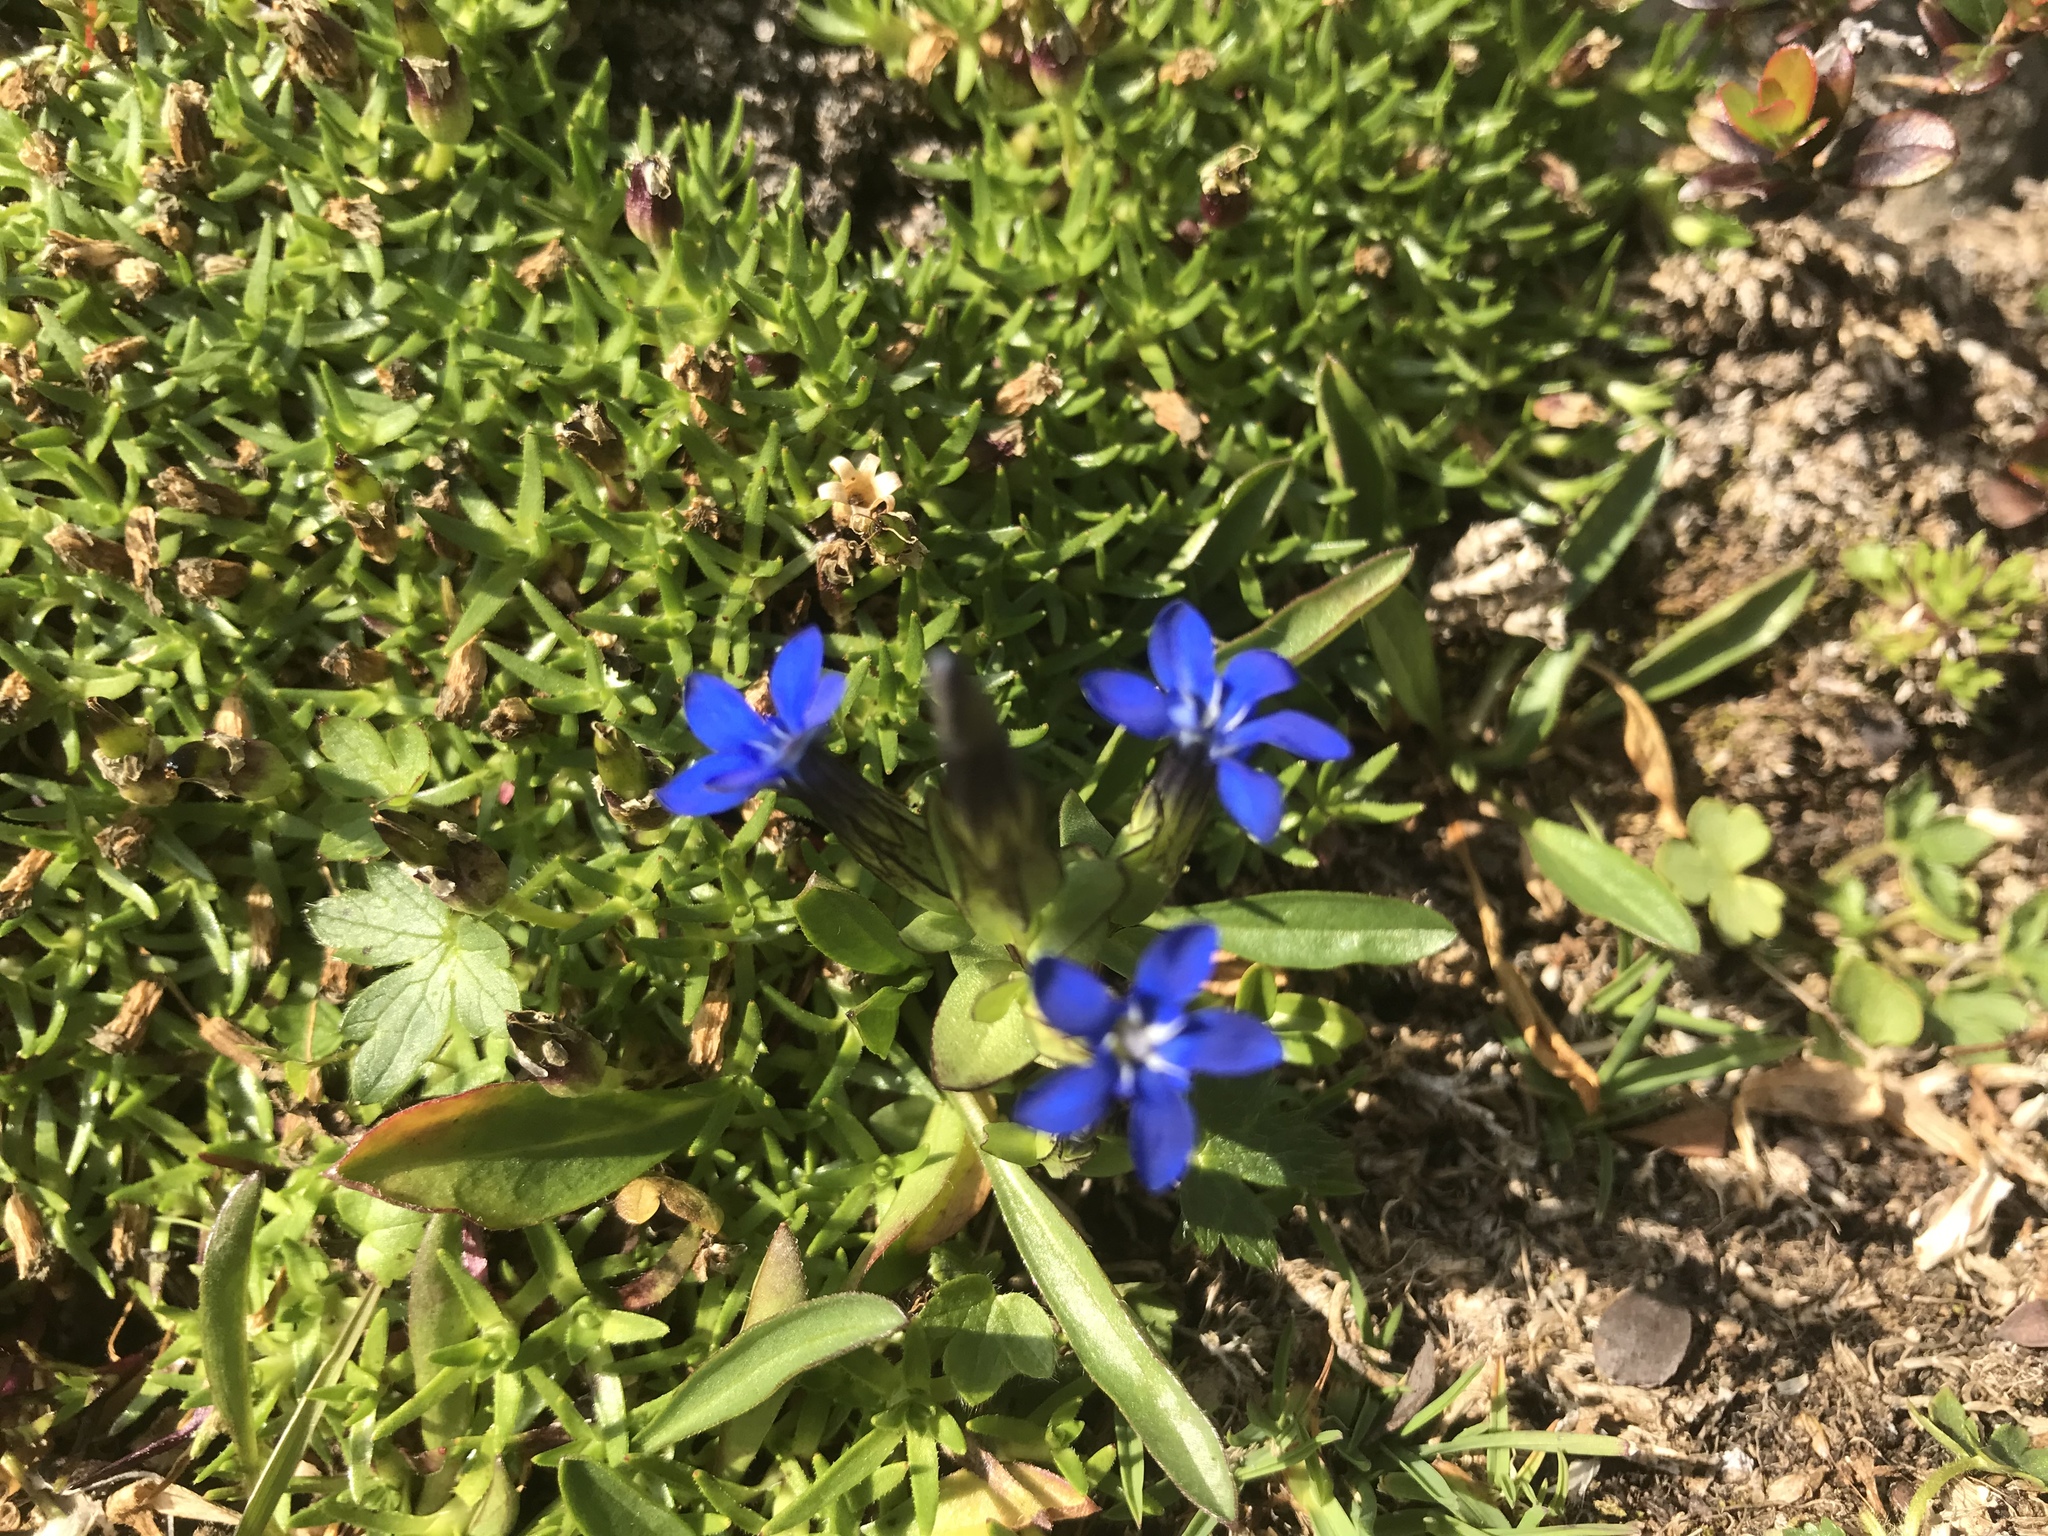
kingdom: Plantae
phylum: Tracheophyta
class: Magnoliopsida
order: Gentianales
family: Gentianaceae
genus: Gentiana
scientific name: Gentiana nivalis
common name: Alpine gentian
